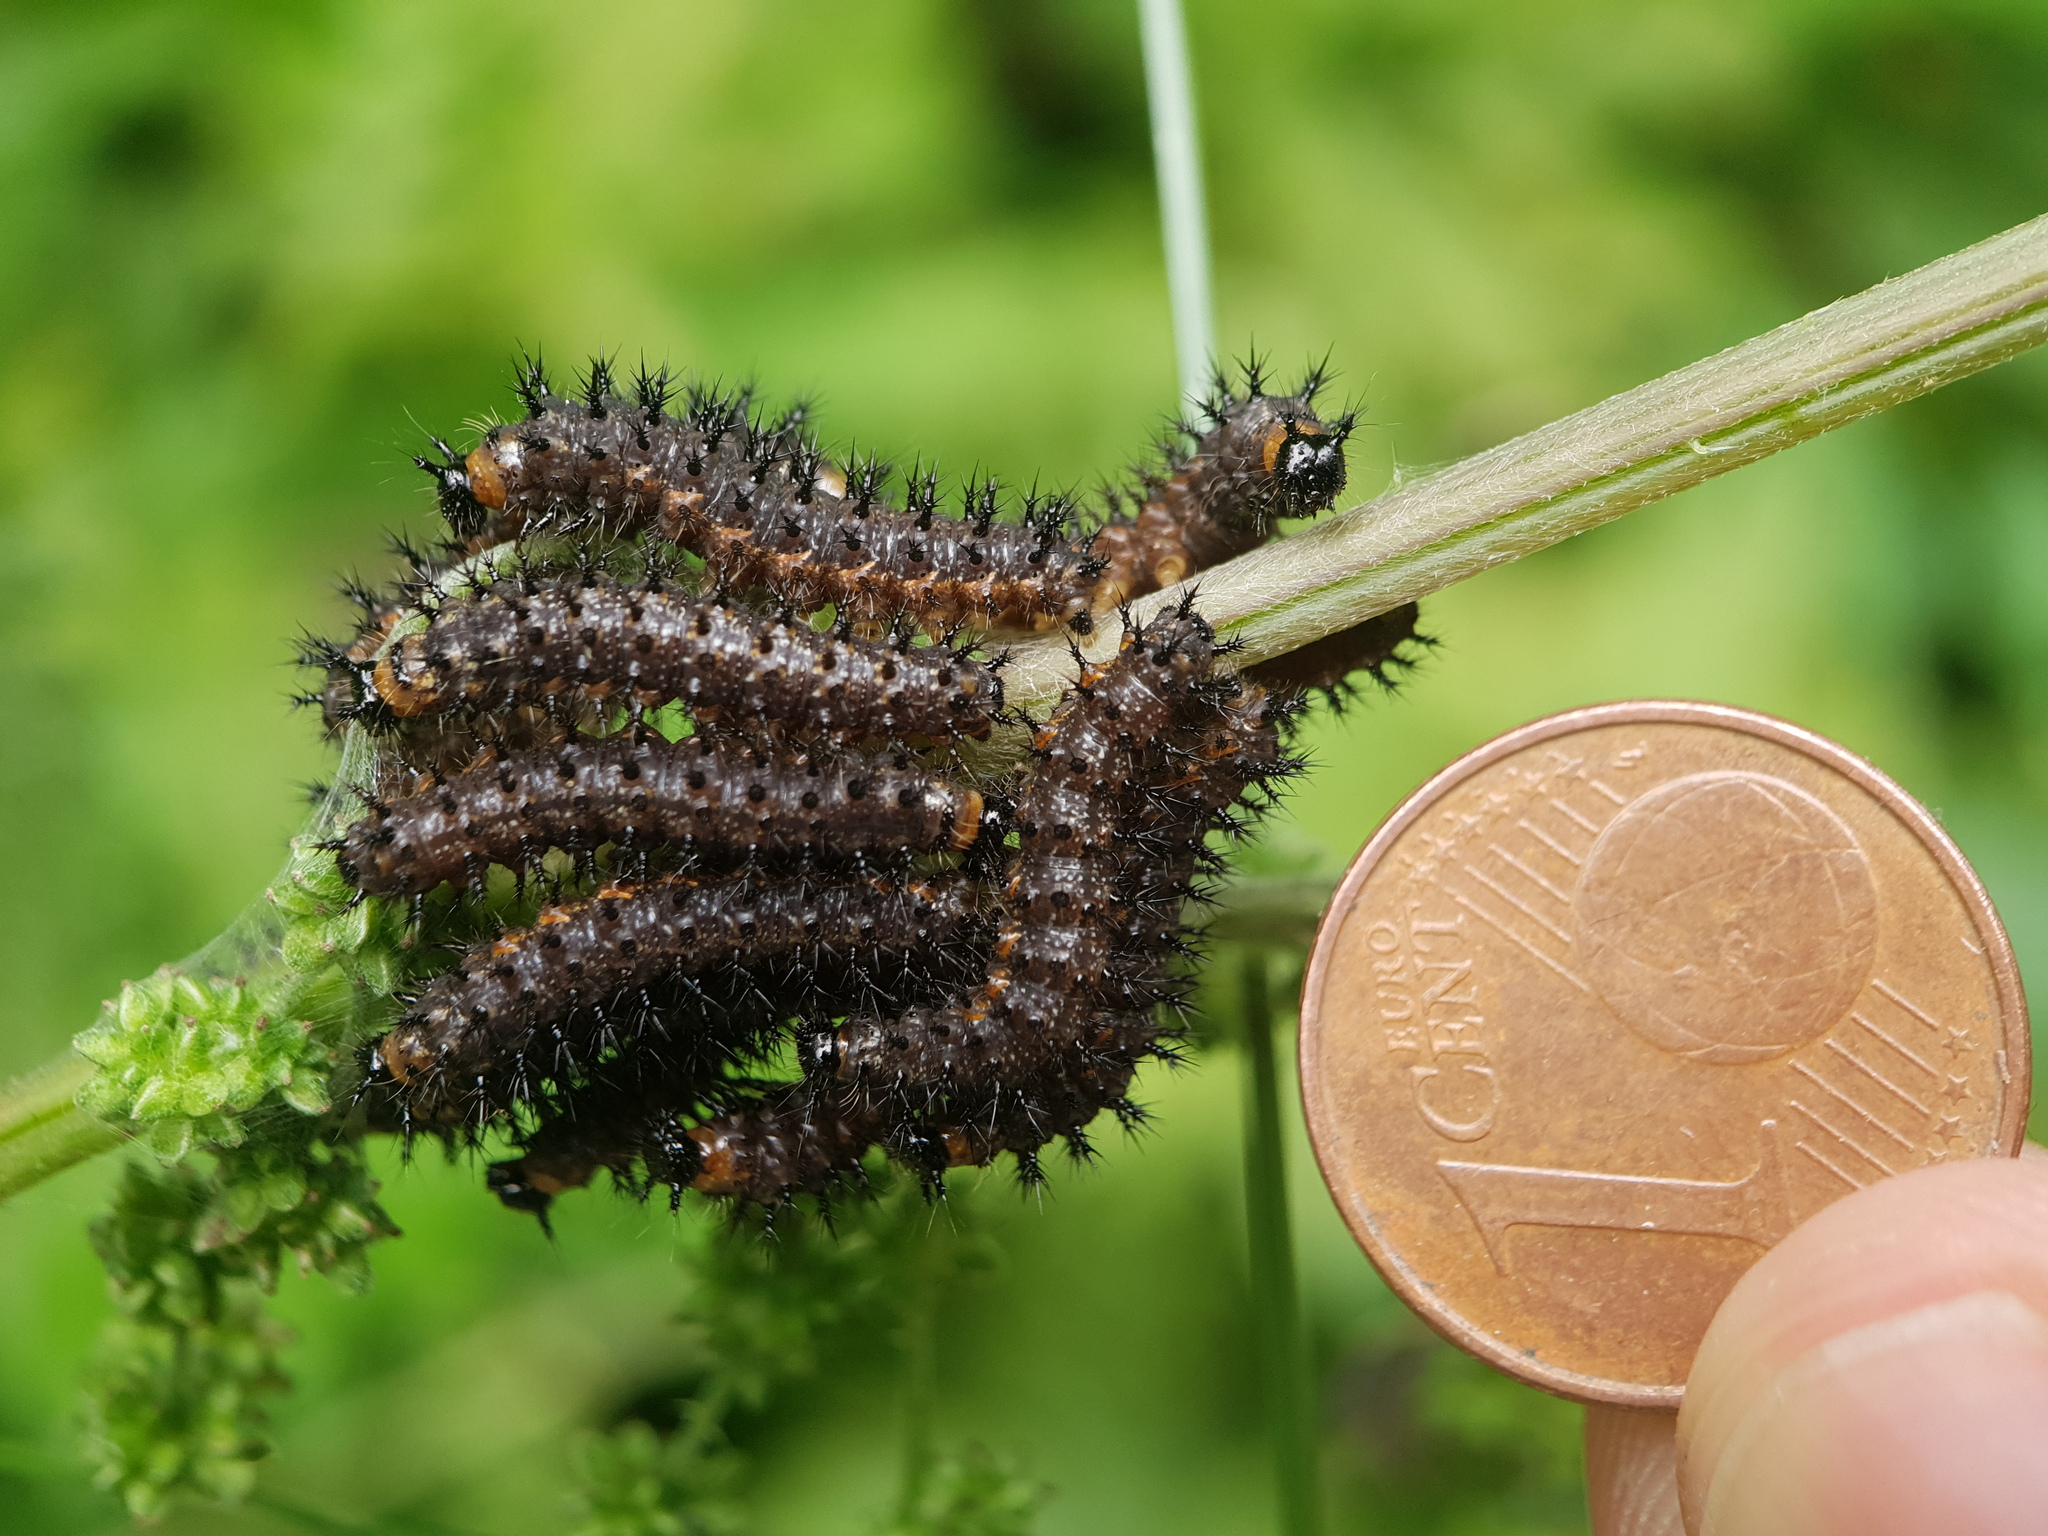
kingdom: Animalia
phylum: Arthropoda
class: Insecta
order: Lepidoptera
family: Nymphalidae
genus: Araschnia
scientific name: Araschnia levana
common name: Map butterfly
